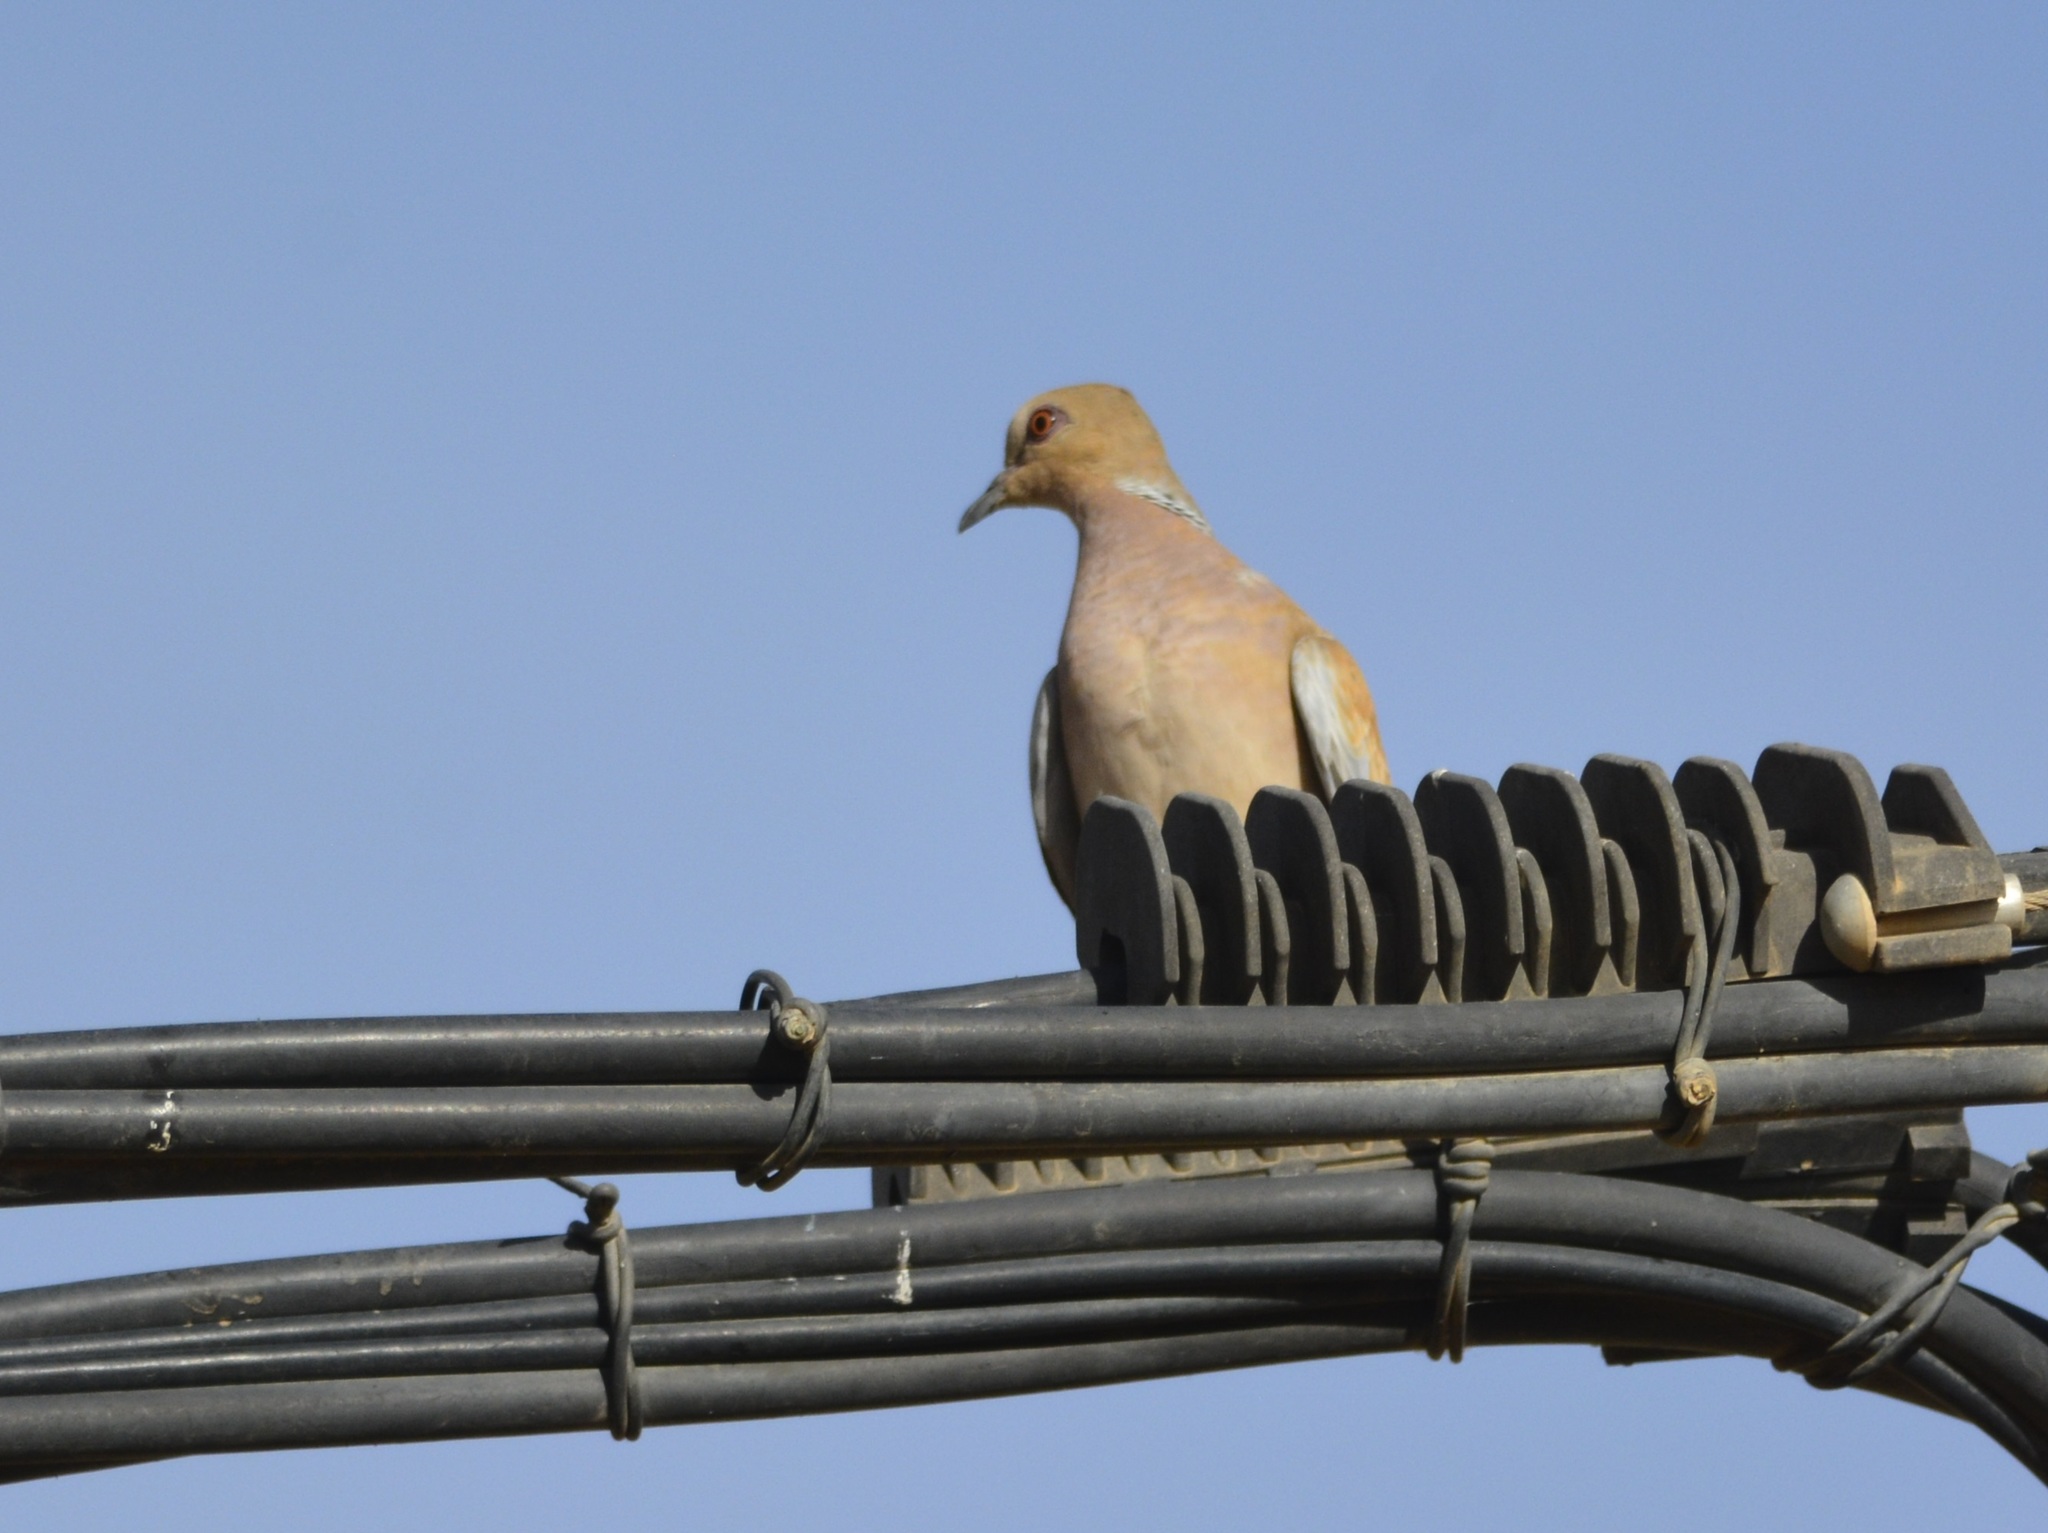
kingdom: Animalia
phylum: Chordata
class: Aves
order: Columbiformes
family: Columbidae
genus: Streptopelia
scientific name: Streptopelia turtur
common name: European turtle dove
